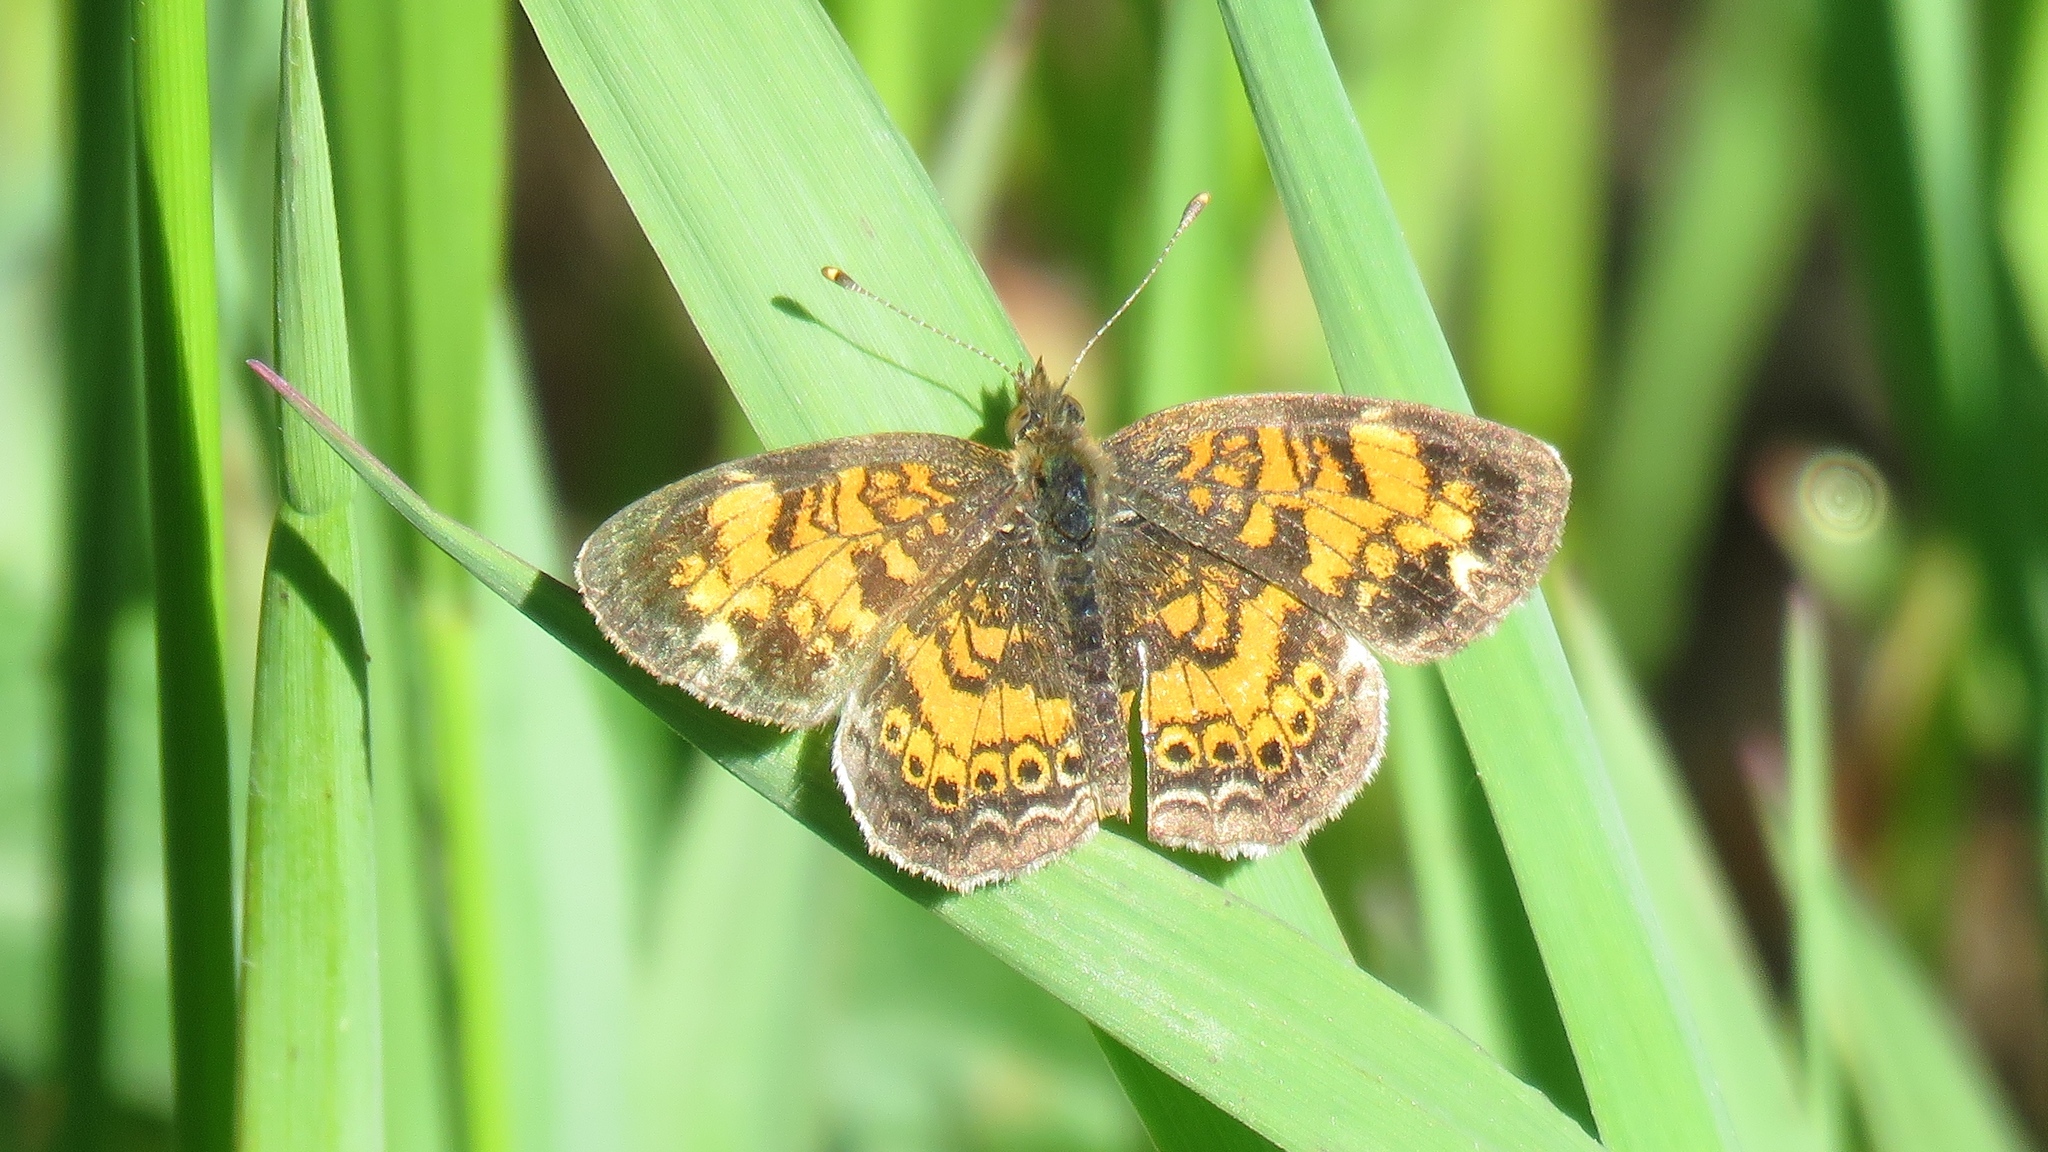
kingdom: Animalia
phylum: Arthropoda
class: Insecta
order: Lepidoptera
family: Nymphalidae
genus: Phyciodes
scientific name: Phyciodes tharos
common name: Pearl crescent
